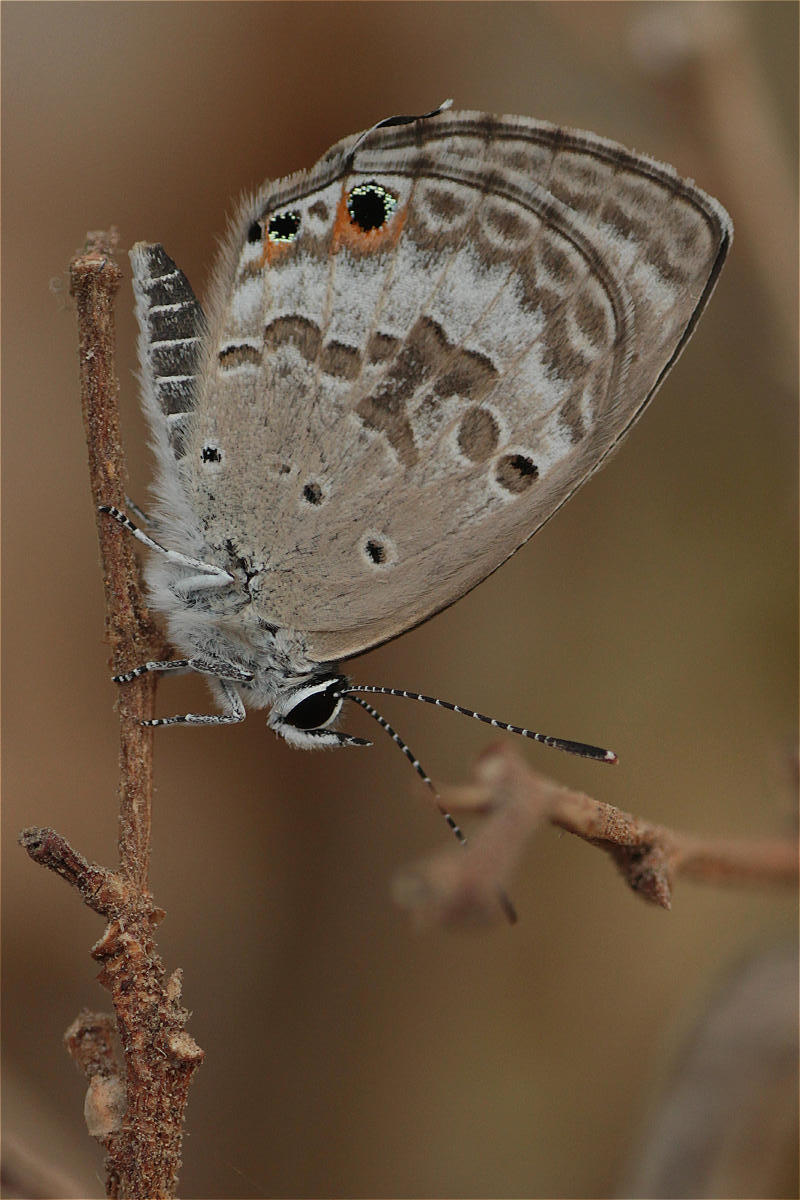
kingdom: Animalia
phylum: Arthropoda
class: Insecta
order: Lepidoptera
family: Lycaenidae
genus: Luthrodes
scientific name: Luthrodes pandava
